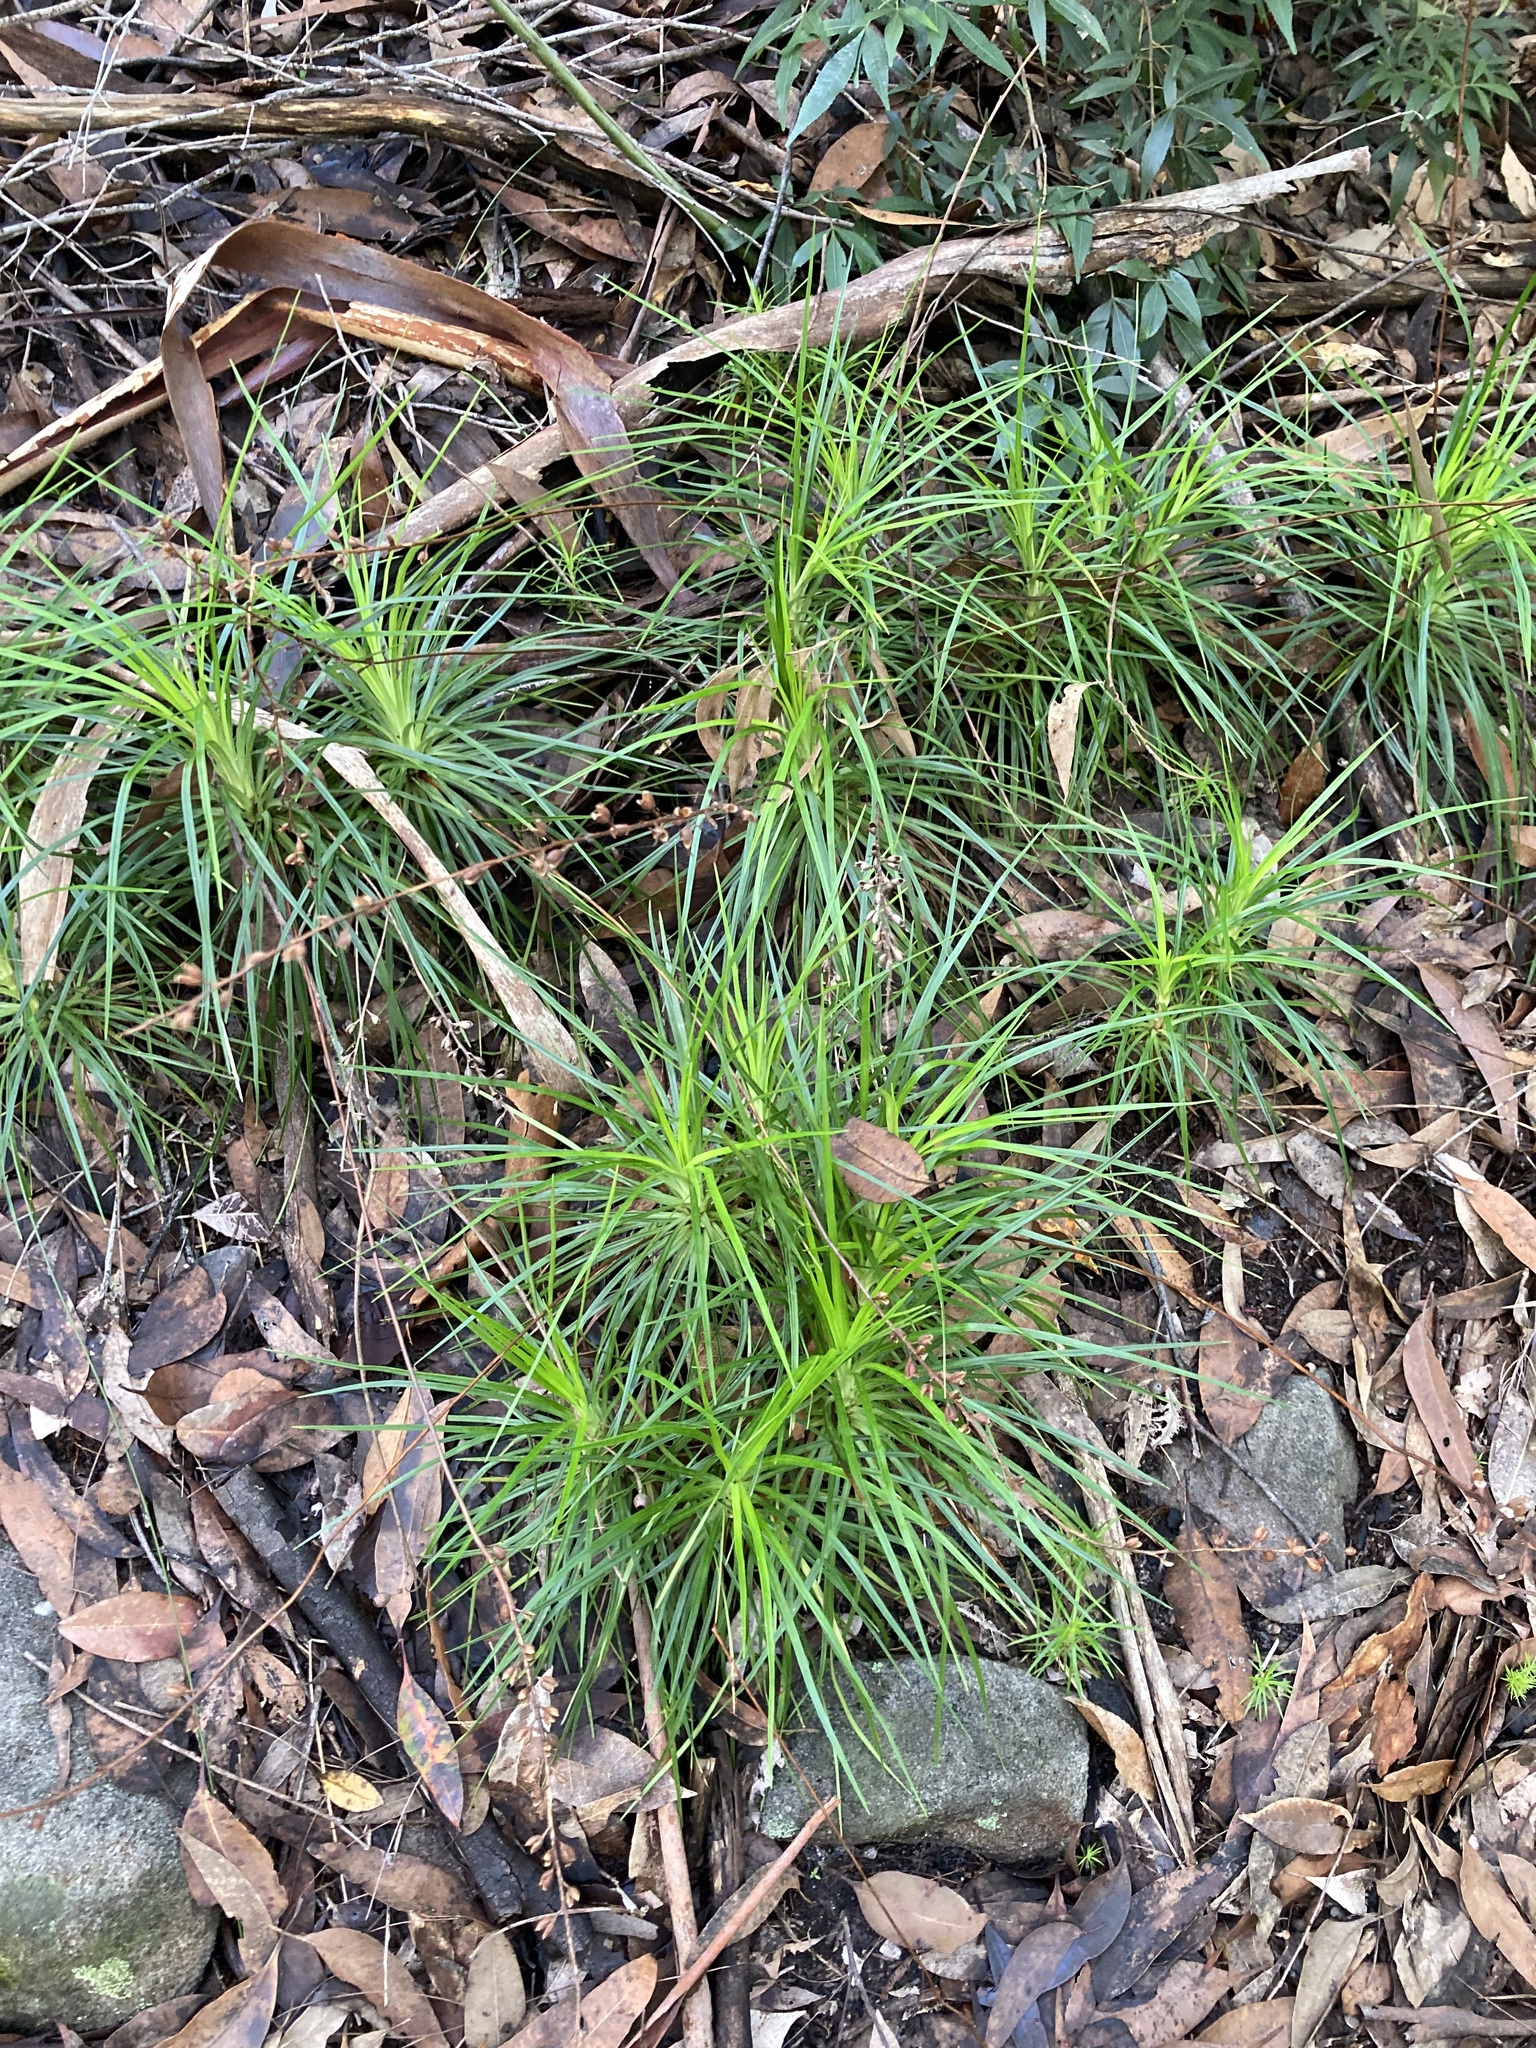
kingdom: Plantae
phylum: Tracheophyta
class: Magnoliopsida
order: Asterales
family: Stylidiaceae
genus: Stylidium
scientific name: Stylidium graminifolium
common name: Grass triggerplant
